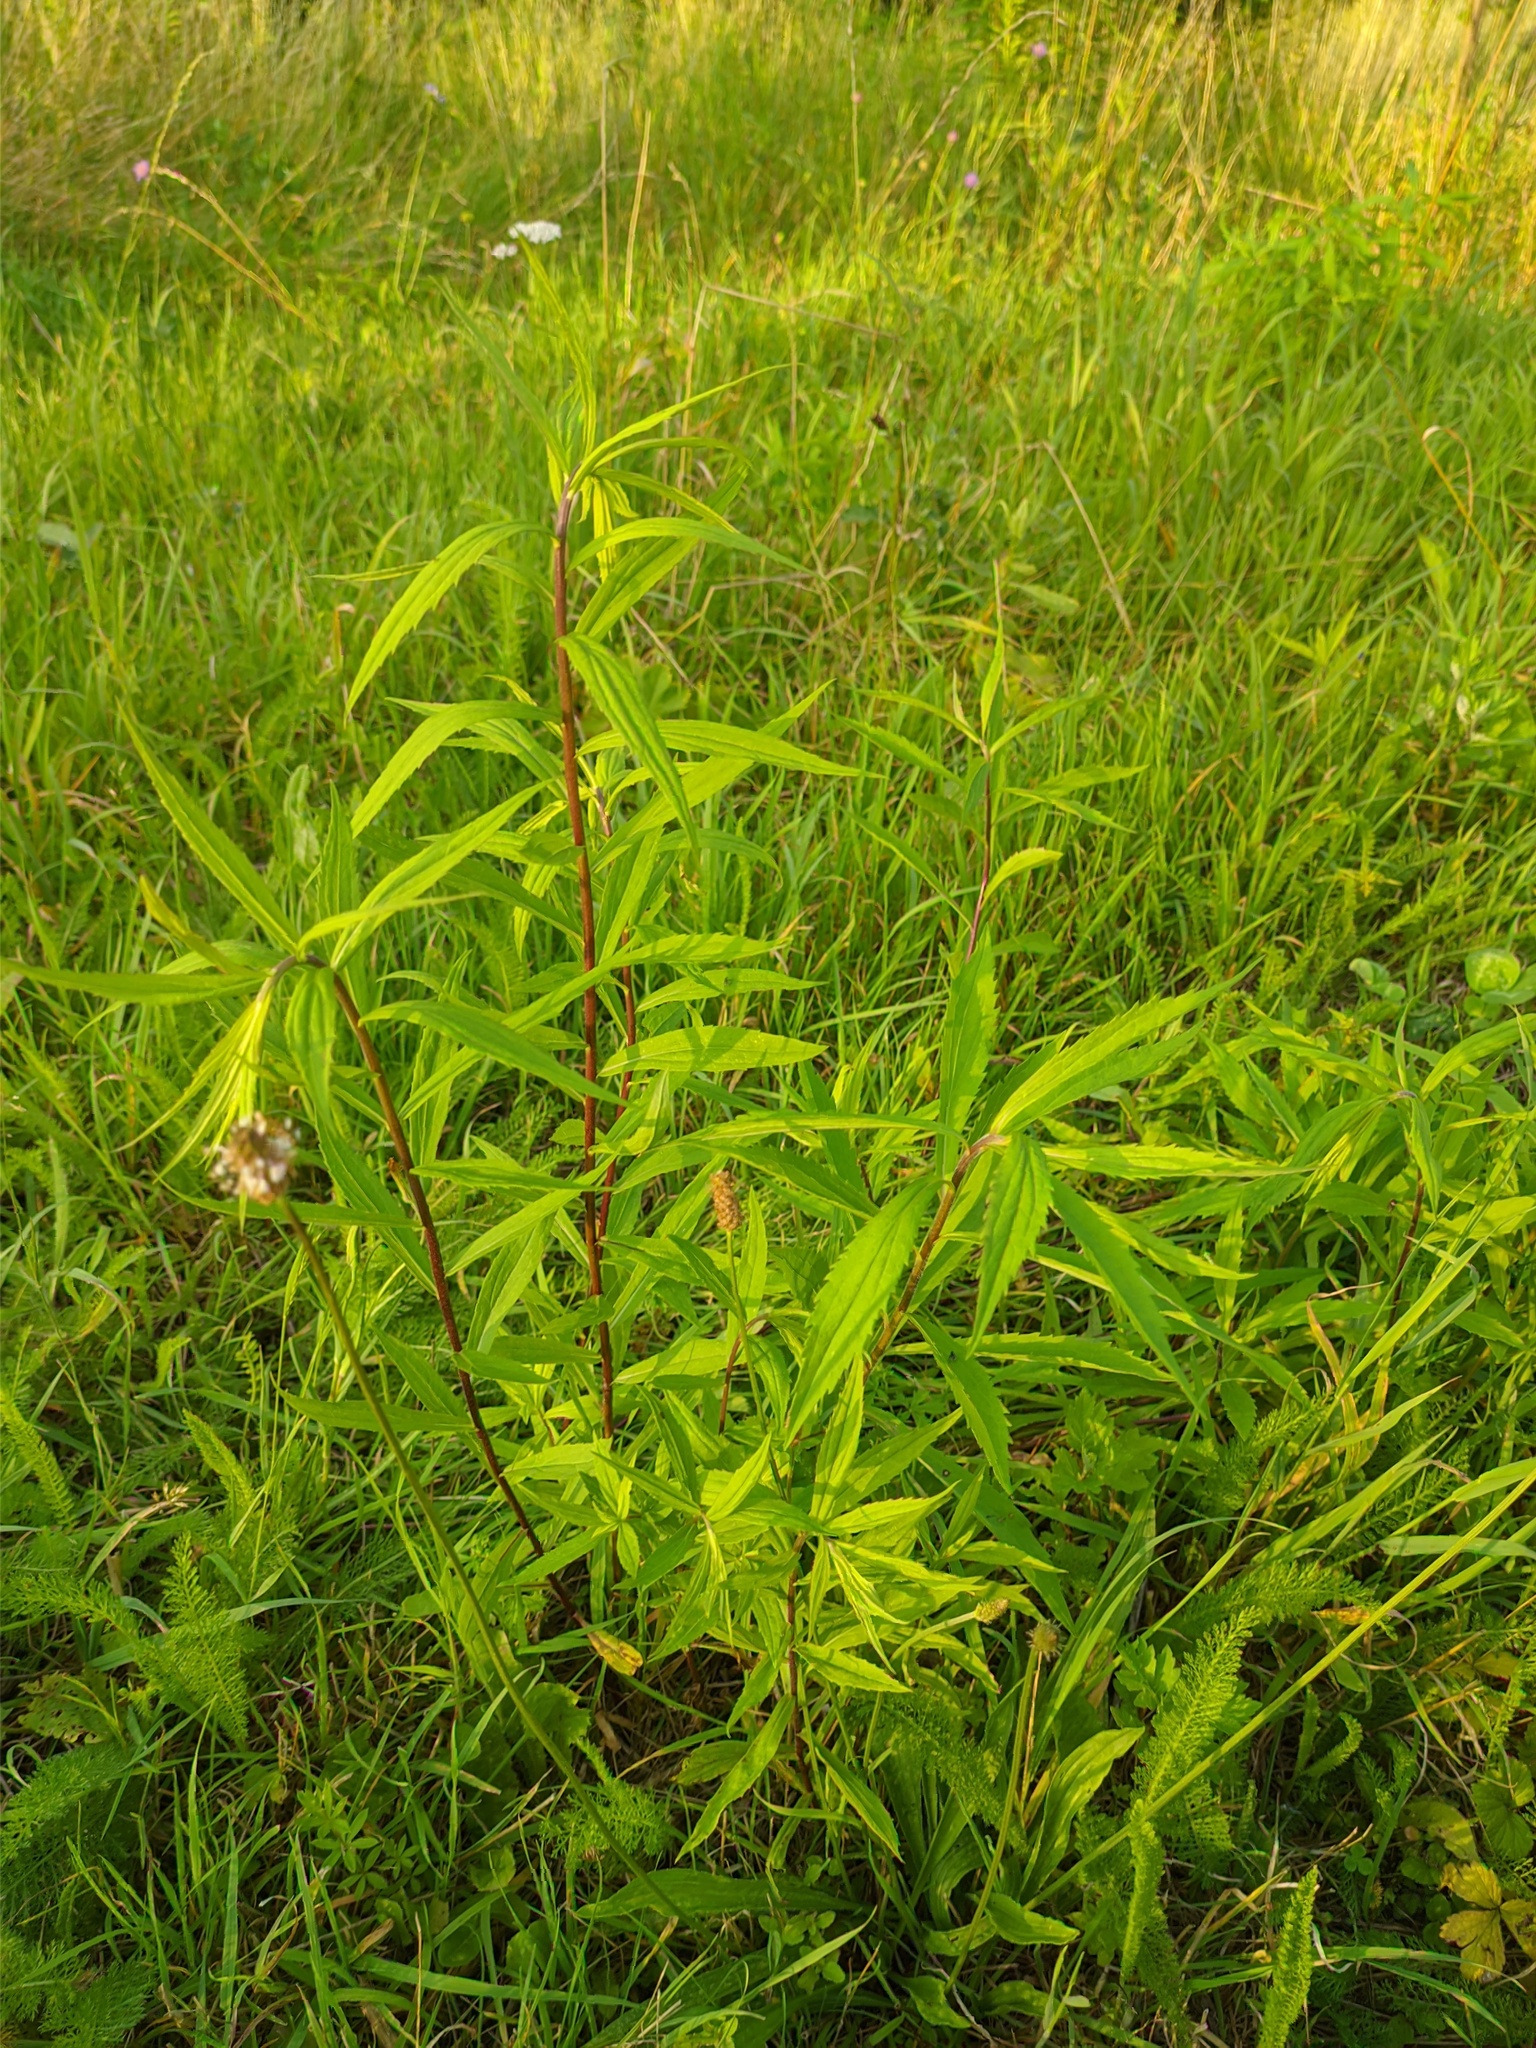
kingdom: Plantae
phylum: Tracheophyta
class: Magnoliopsida
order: Asterales
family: Asteraceae
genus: Solidago
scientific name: Solidago canadensis
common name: Canada goldenrod
